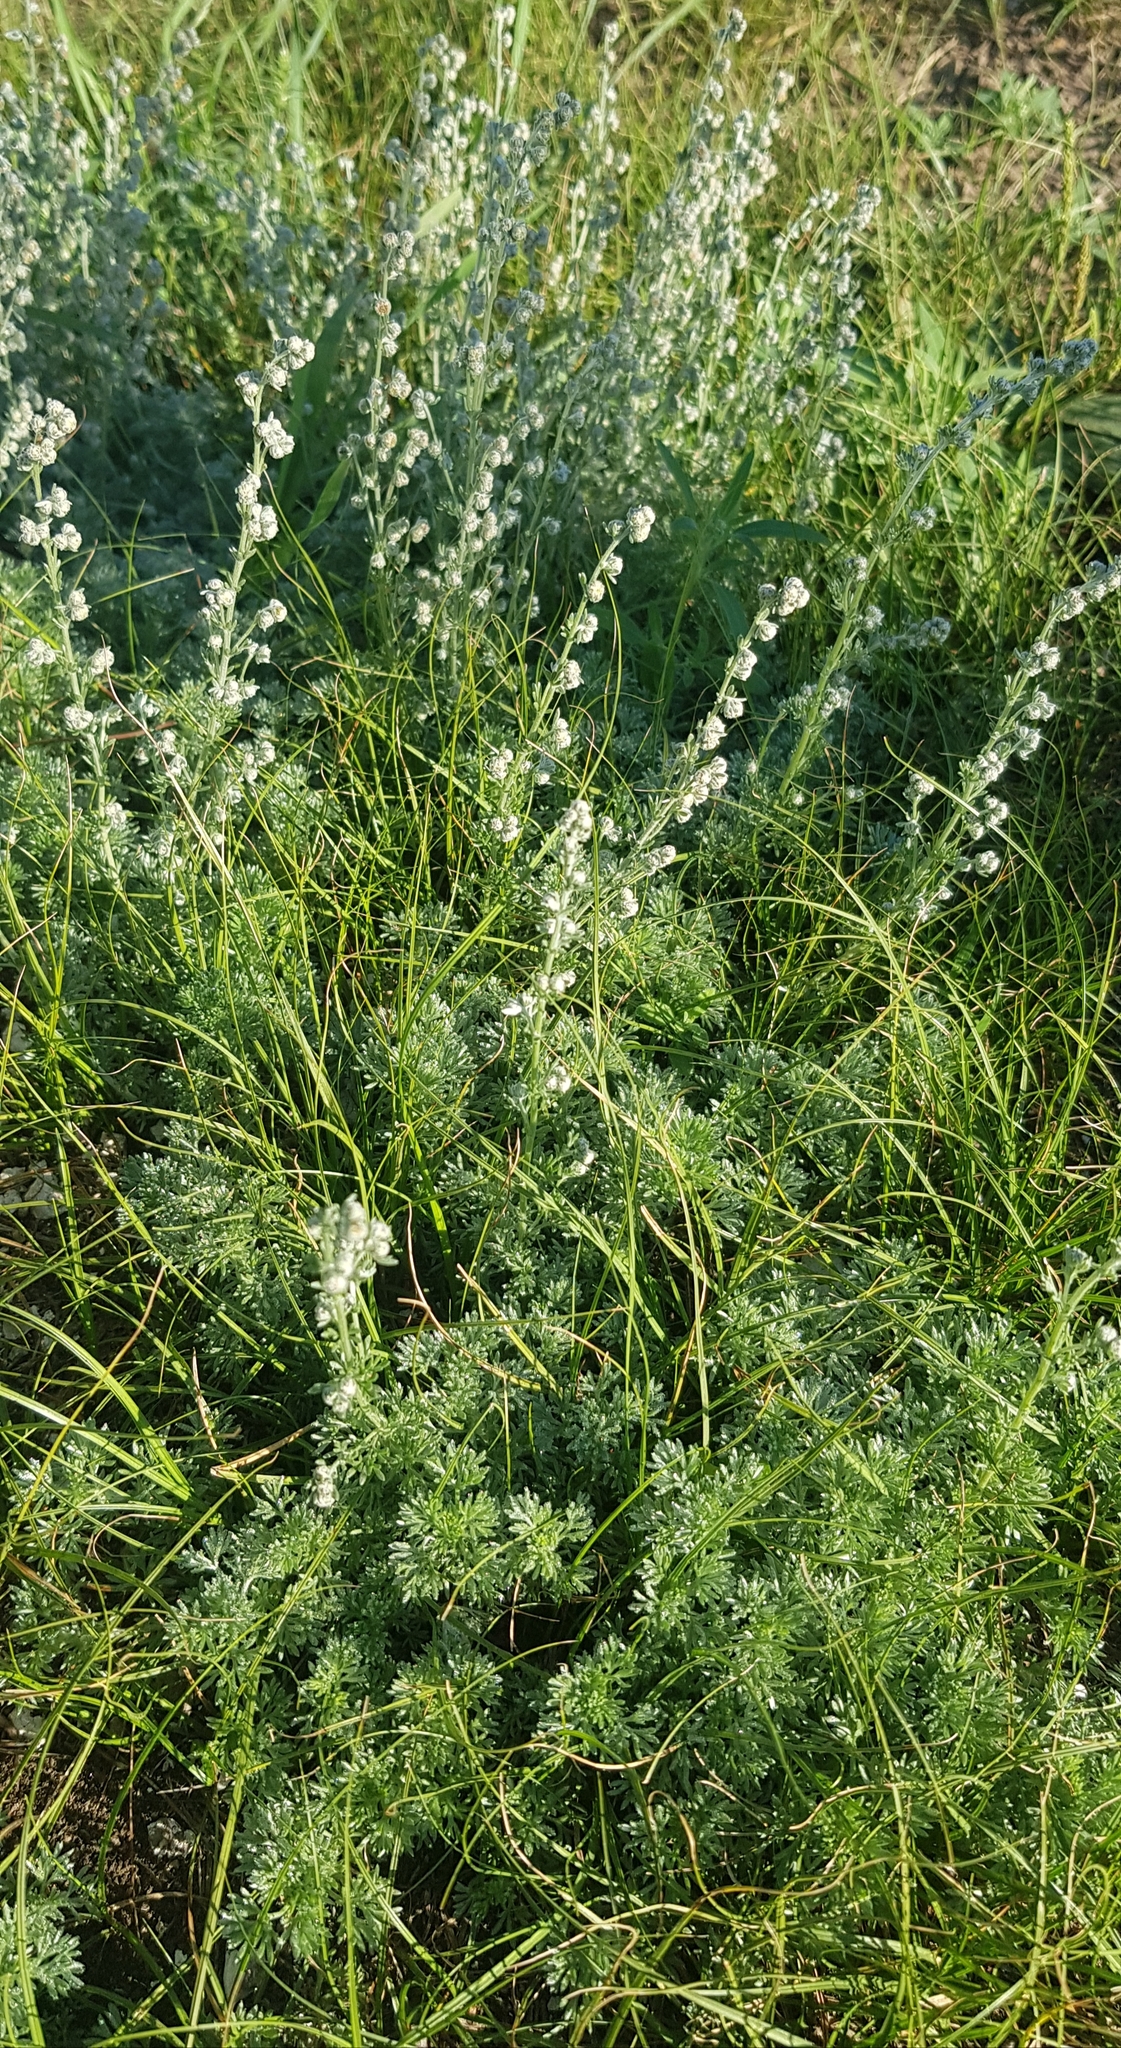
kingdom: Plantae
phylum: Tracheophyta
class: Magnoliopsida
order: Asterales
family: Asteraceae
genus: Artemisia
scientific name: Artemisia frigida
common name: Prairie sagewort
